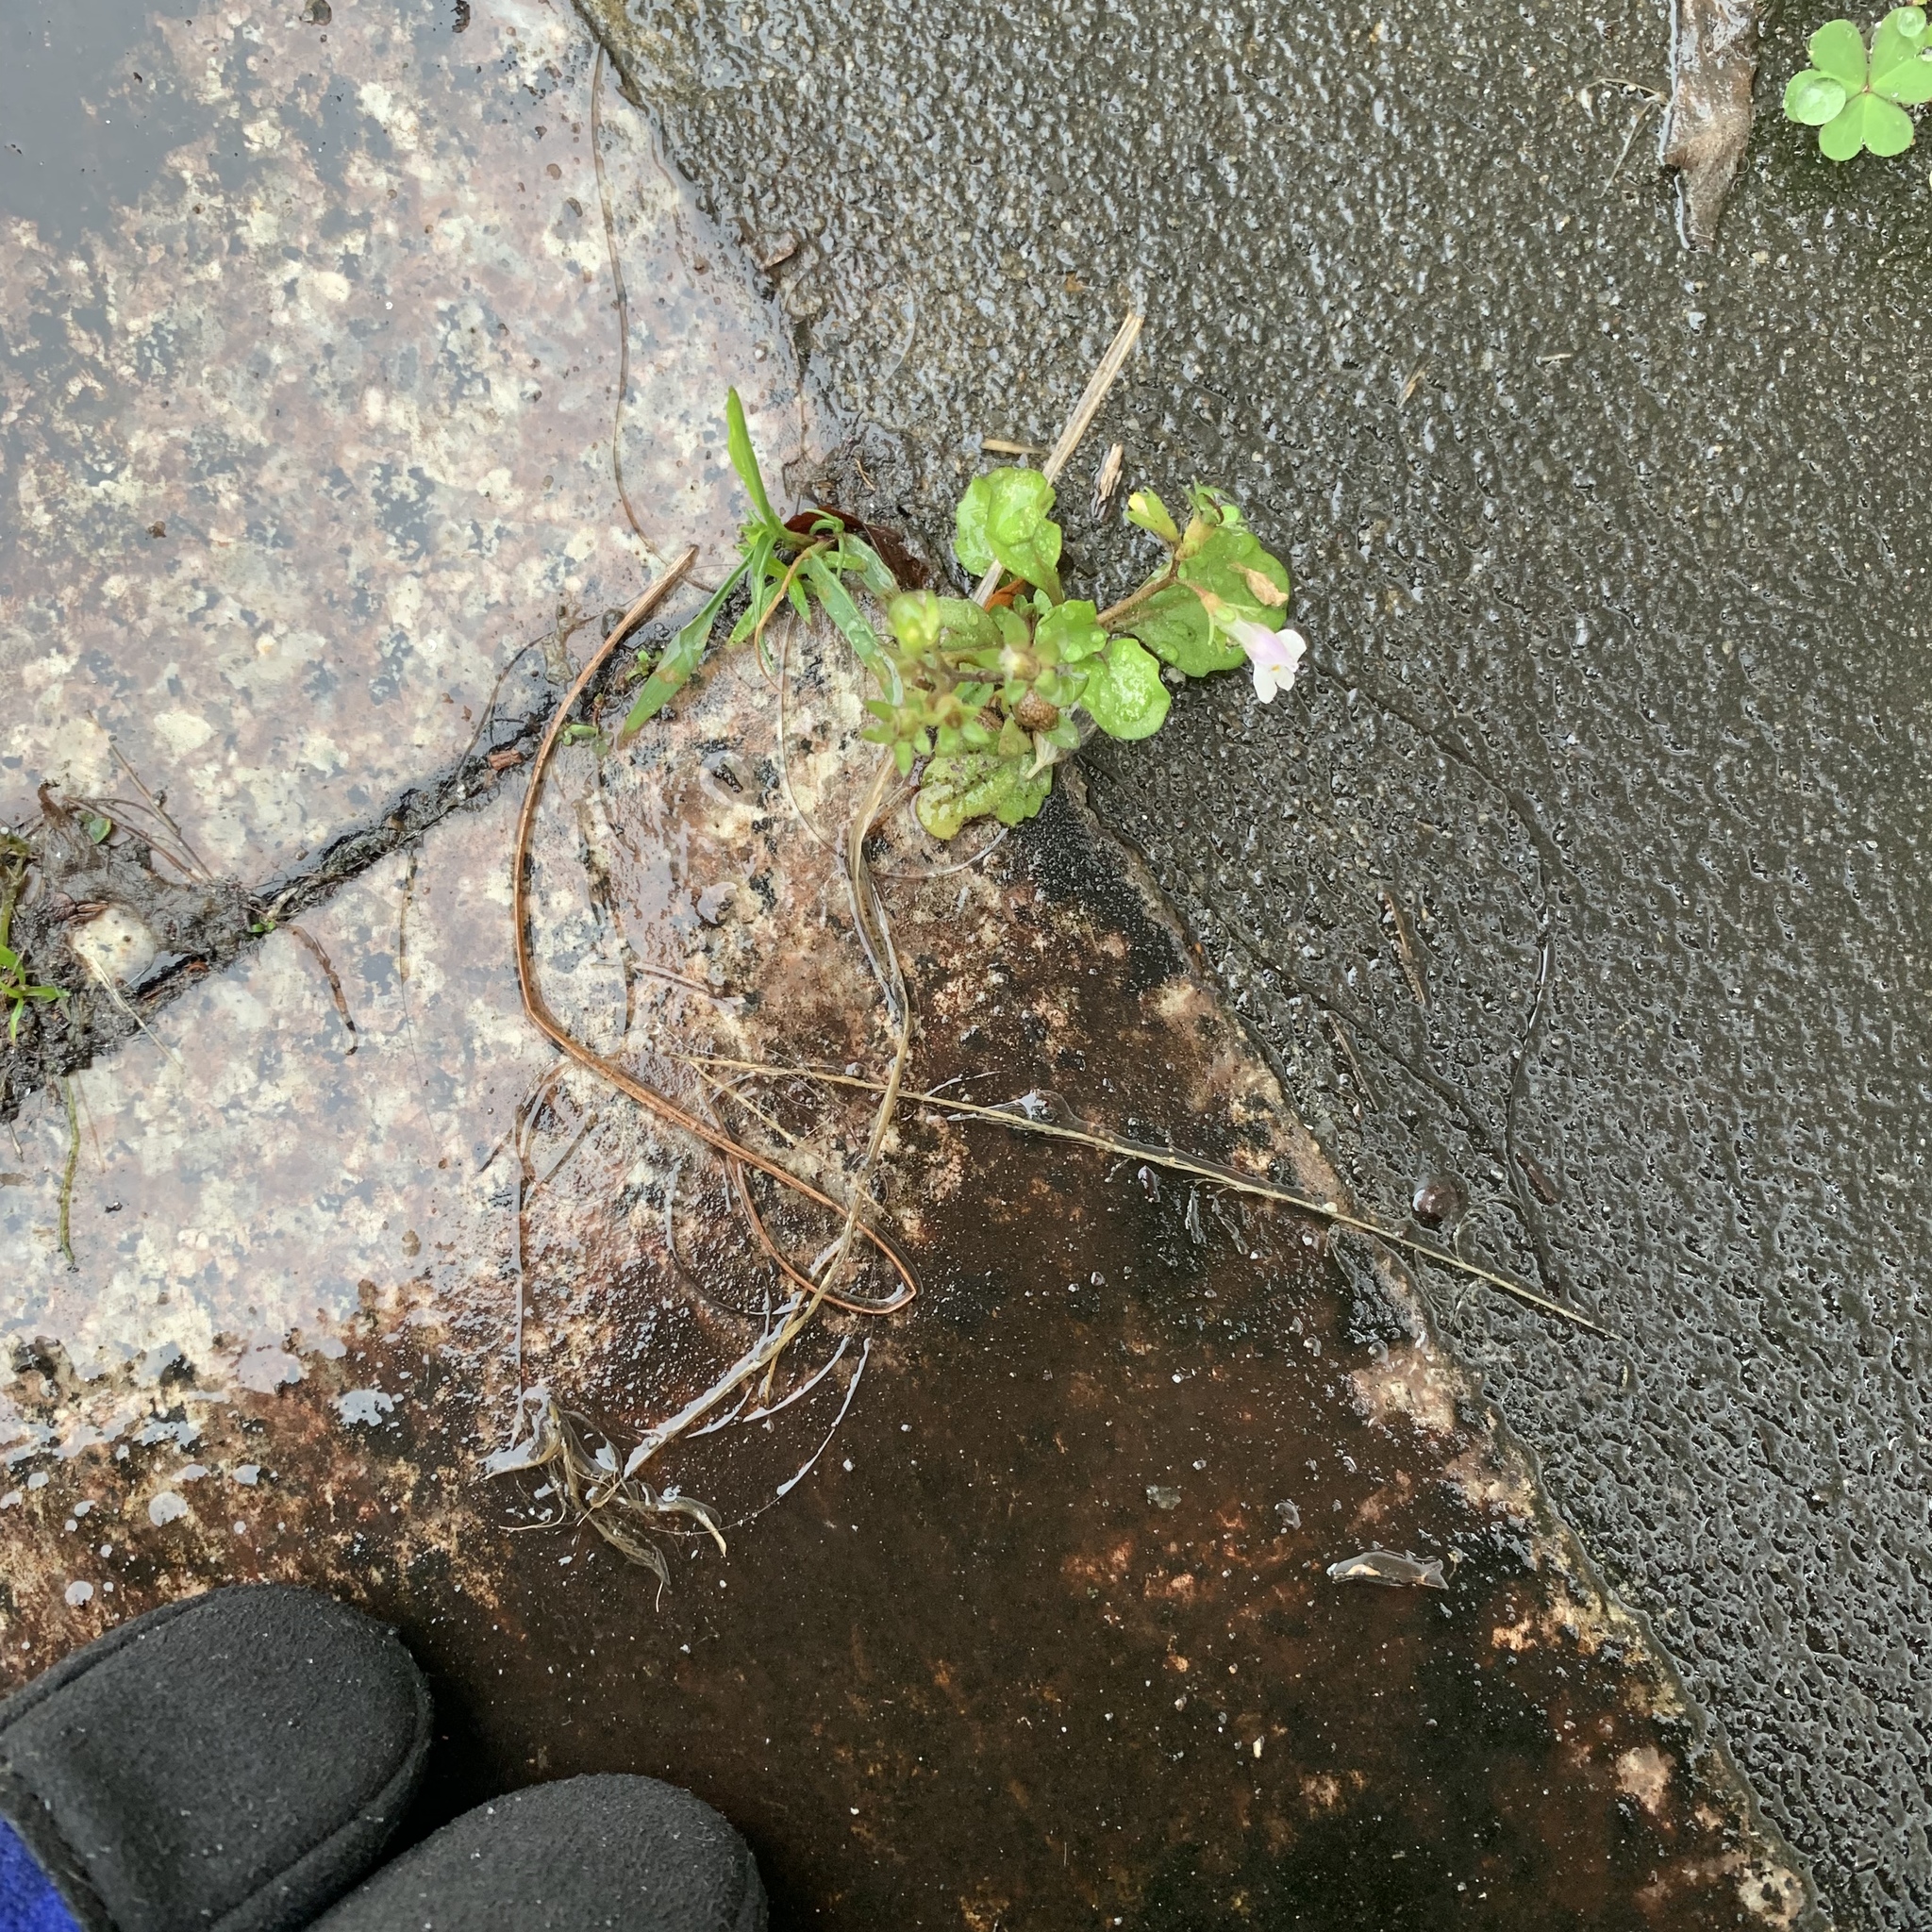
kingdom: Plantae
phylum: Tracheophyta
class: Magnoliopsida
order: Lamiales
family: Mazaceae
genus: Mazus
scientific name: Mazus pumilus
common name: Japanese mazus
